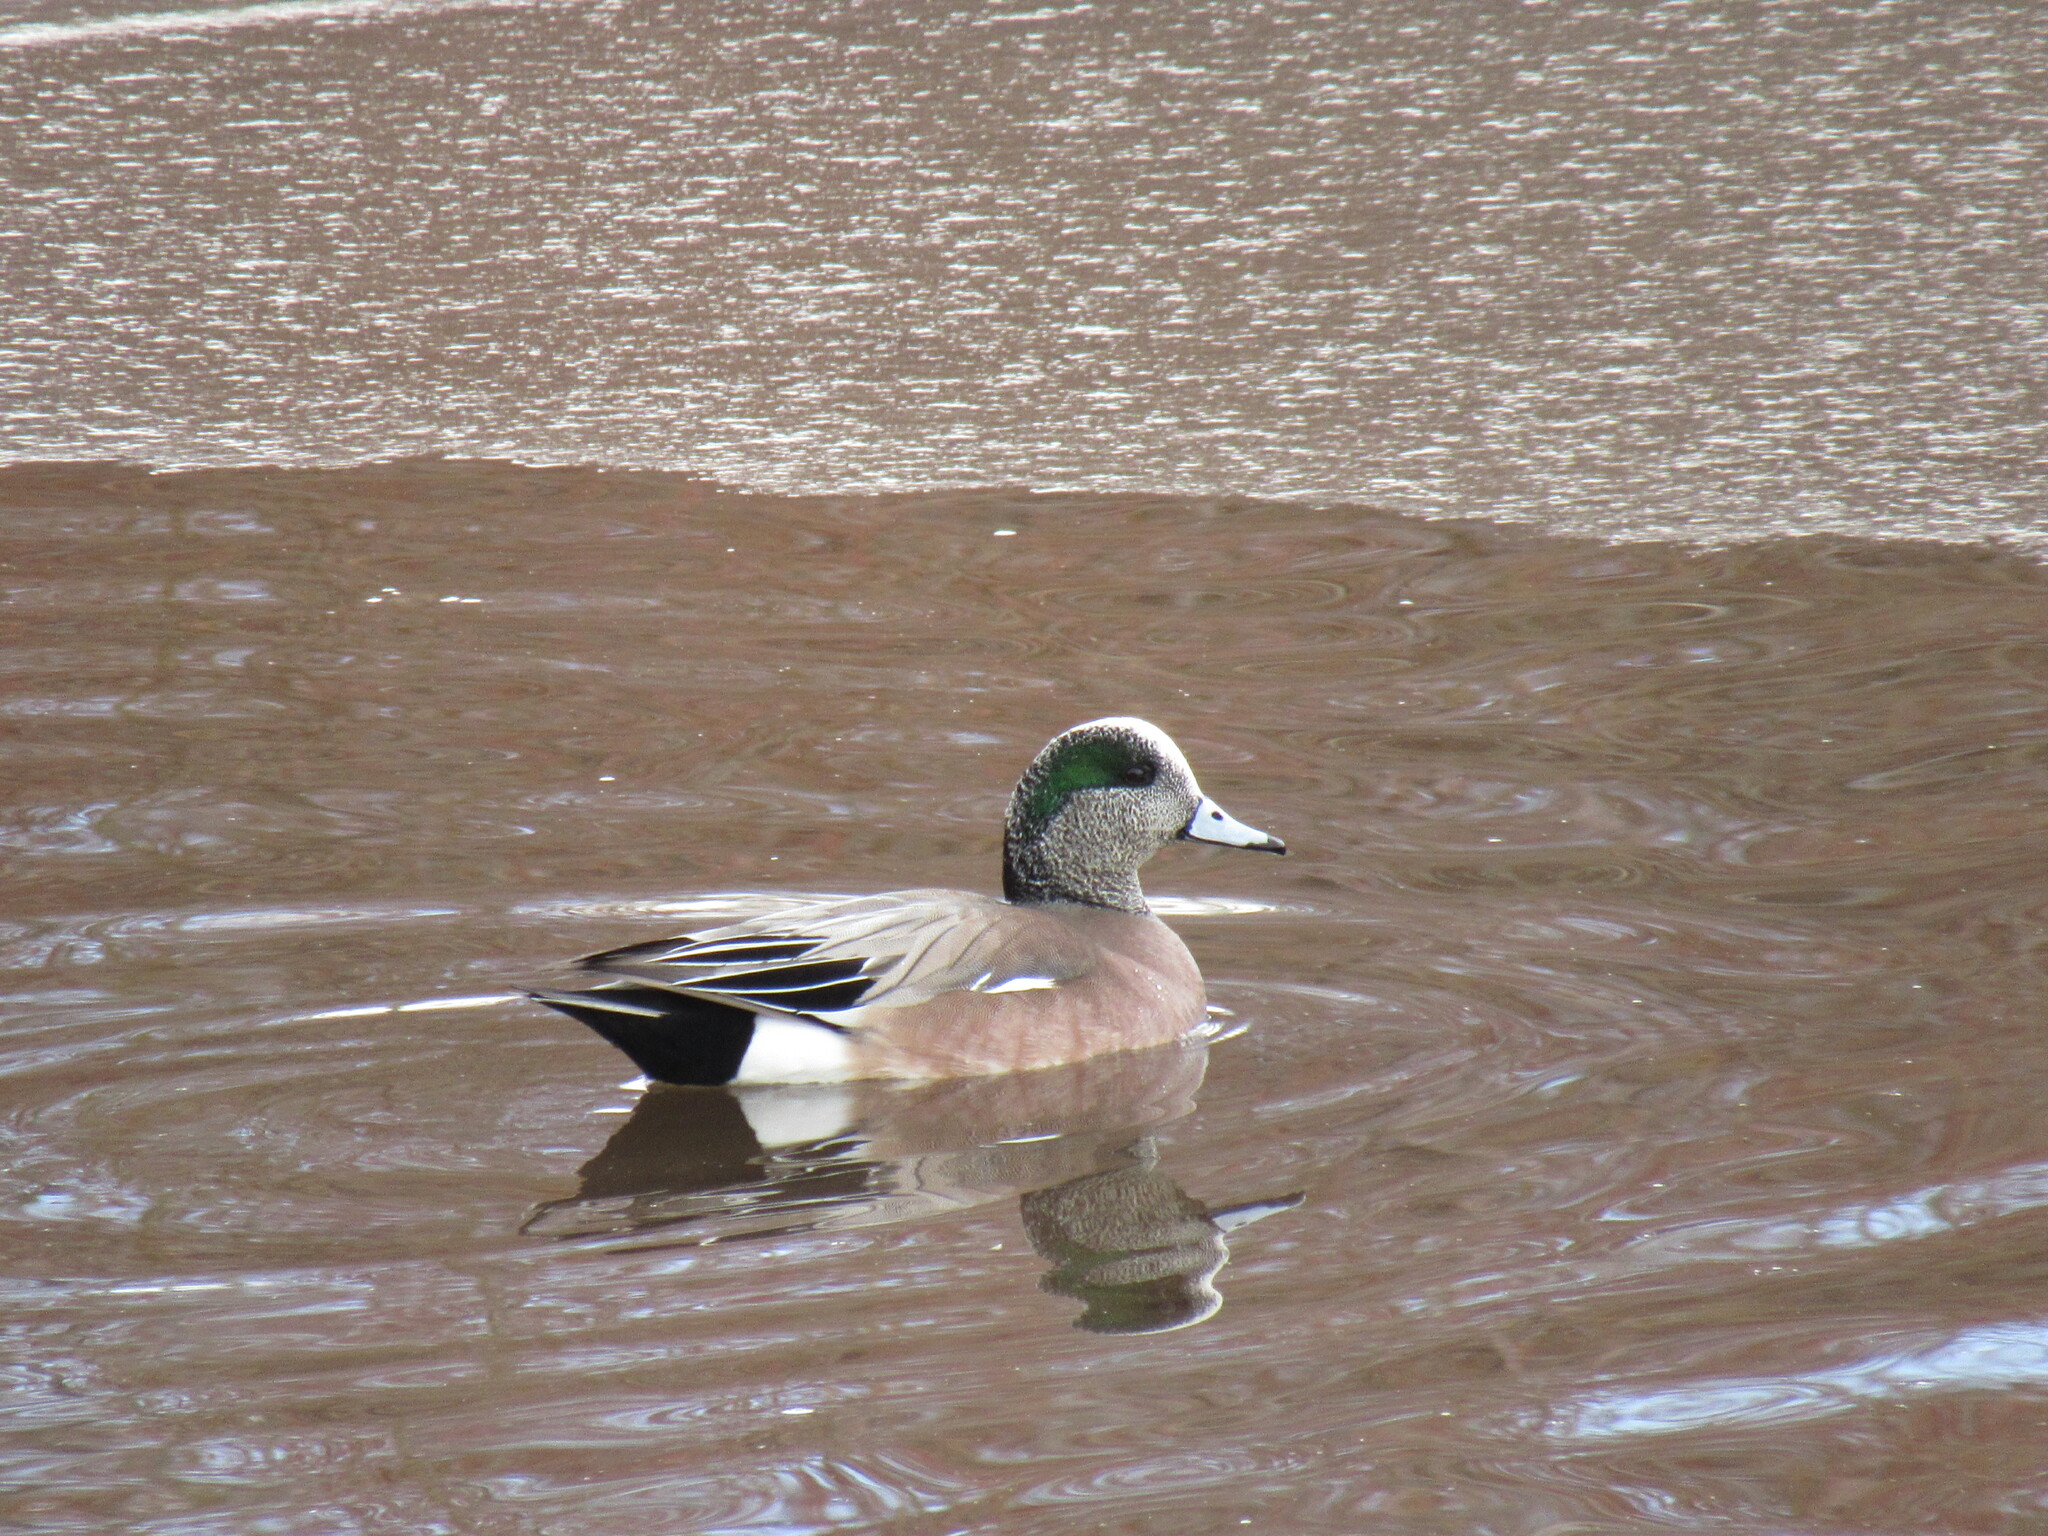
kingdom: Animalia
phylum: Chordata
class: Aves
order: Anseriformes
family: Anatidae
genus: Mareca
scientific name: Mareca americana
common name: American wigeon
